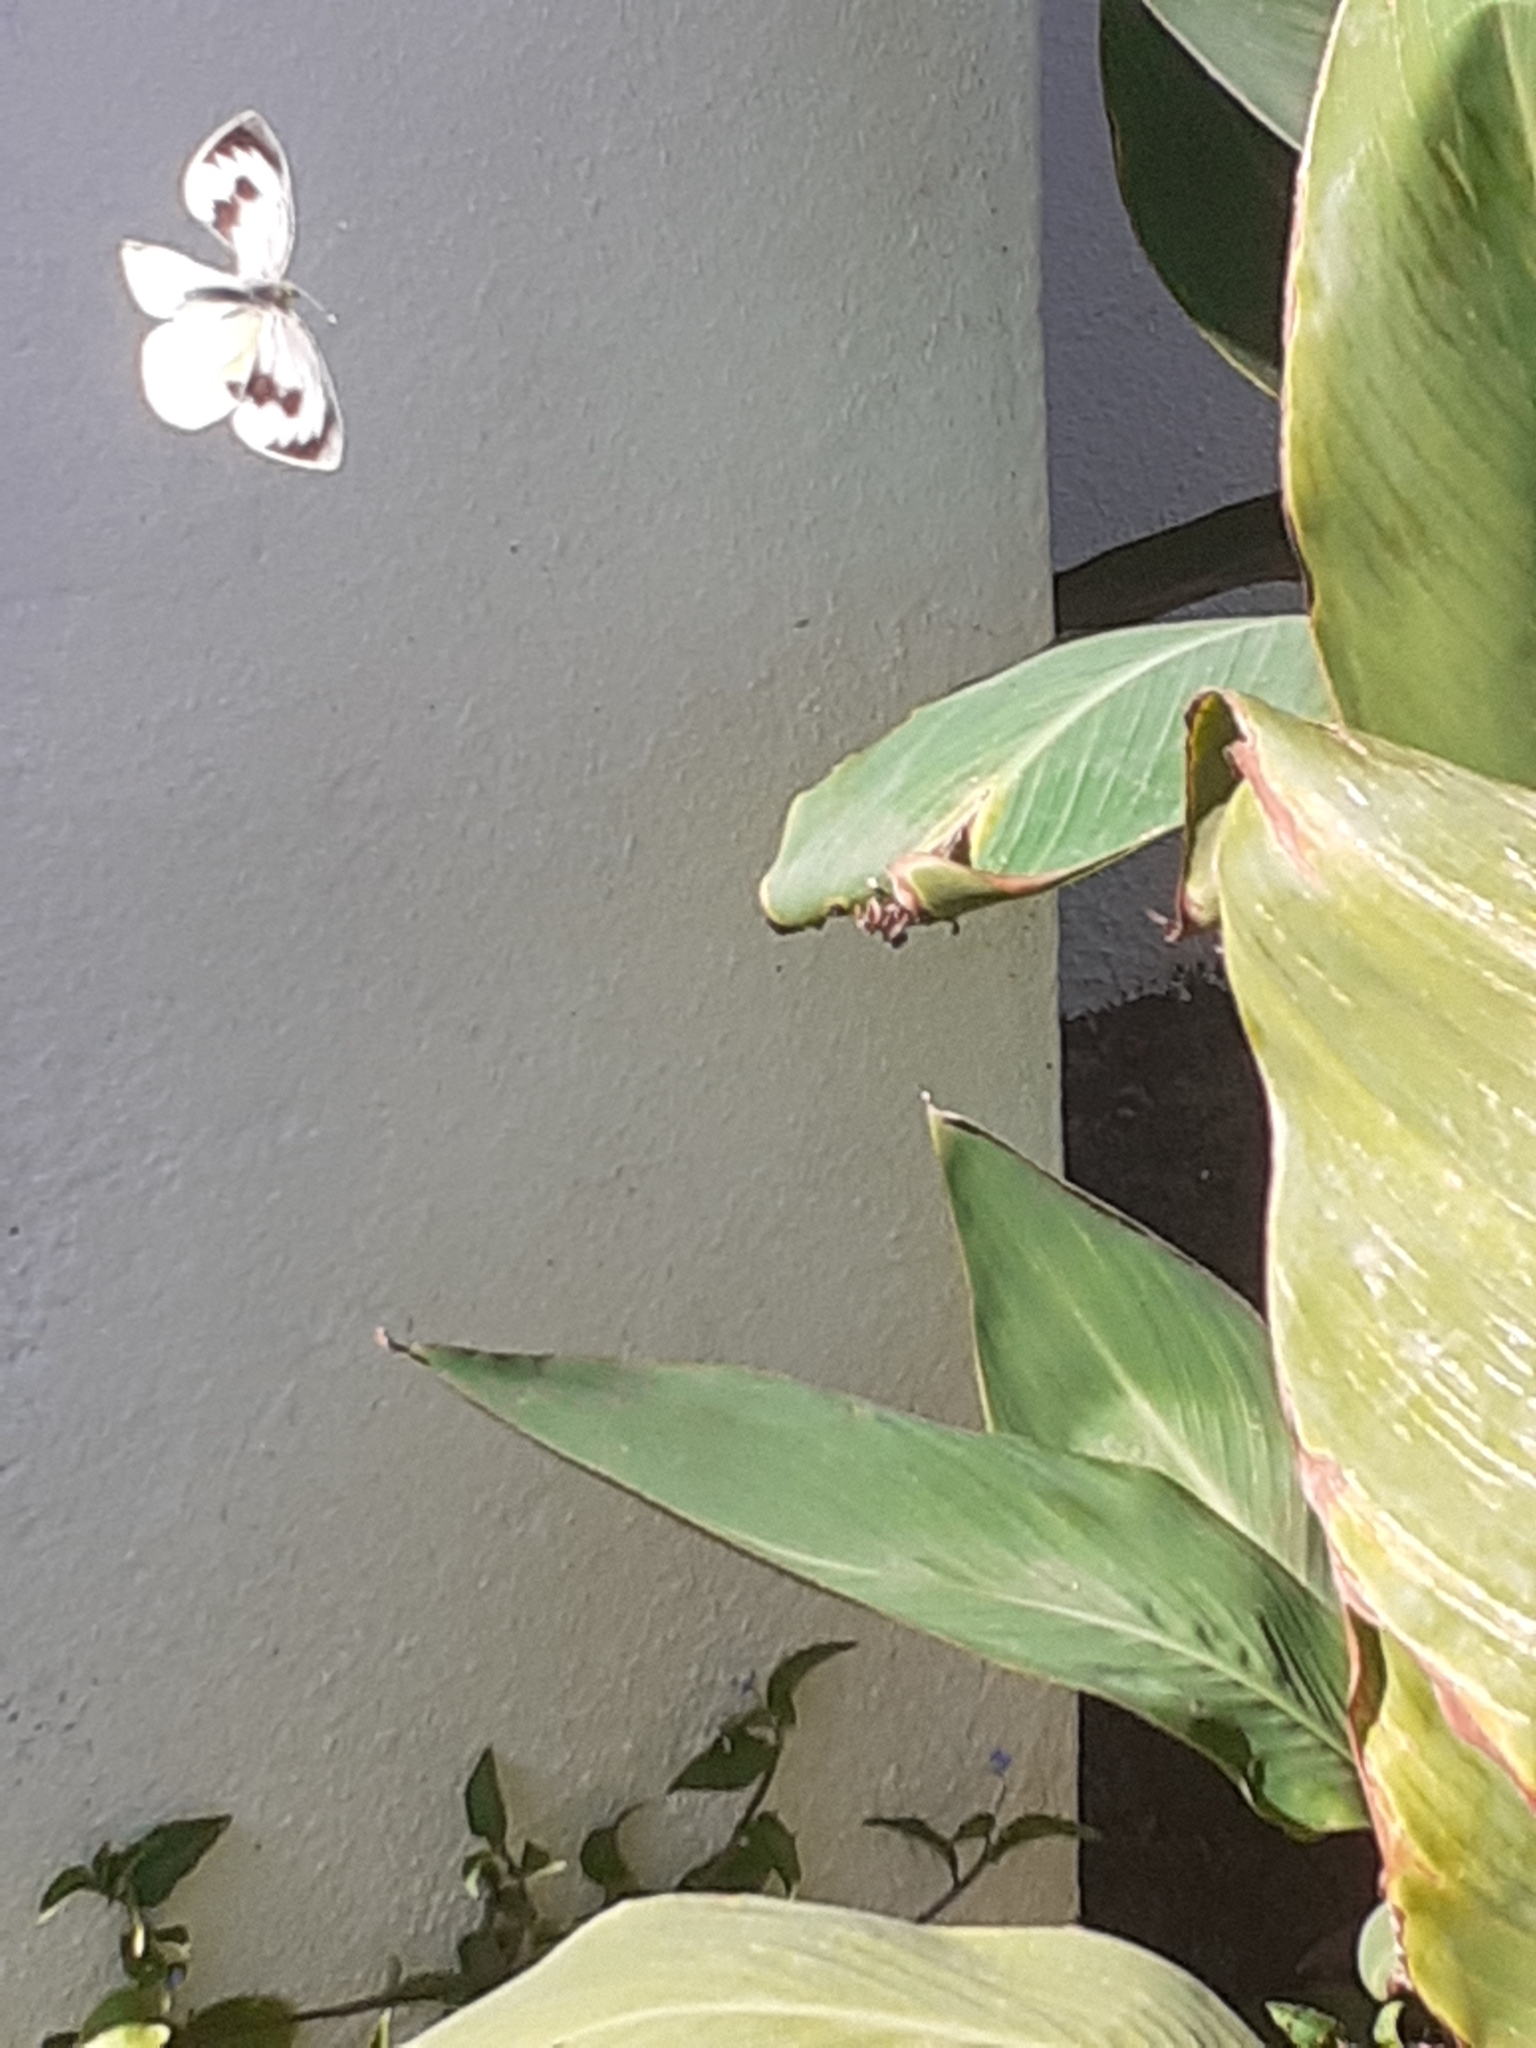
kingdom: Animalia
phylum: Arthropoda
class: Insecta
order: Lepidoptera
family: Pieridae
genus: Pieris
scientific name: Pieris cheiranthi
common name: Canary islands large white
